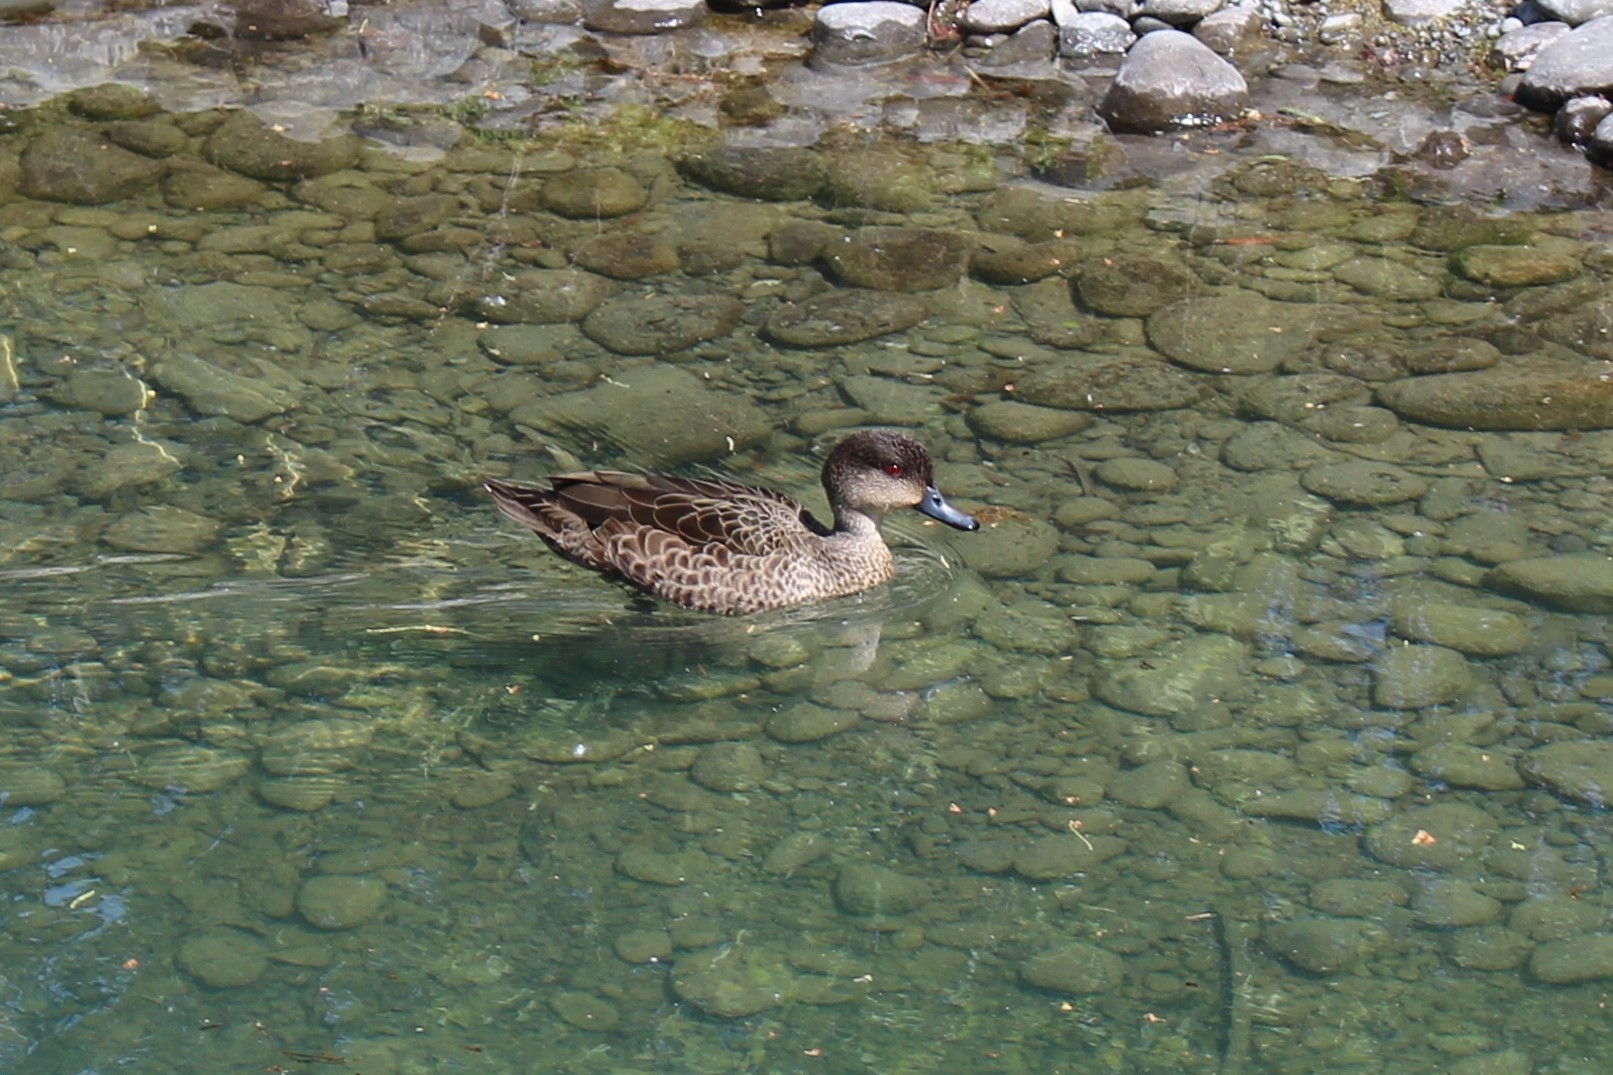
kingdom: Animalia
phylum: Chordata
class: Aves
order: Anseriformes
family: Anatidae
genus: Anas
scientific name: Anas gracilis
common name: Grey teal
